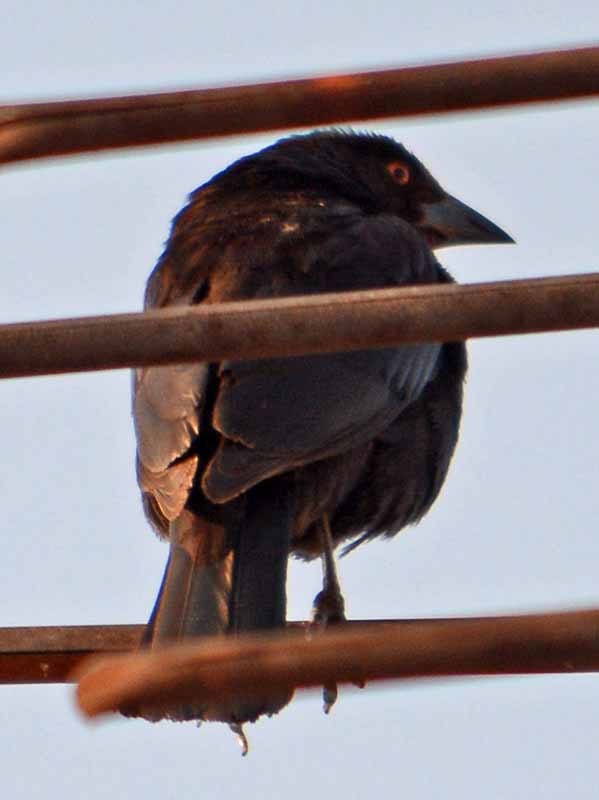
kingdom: Animalia
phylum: Chordata
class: Aves
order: Passeriformes
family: Icteridae
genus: Molothrus
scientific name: Molothrus aeneus
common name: Bronzed cowbird
